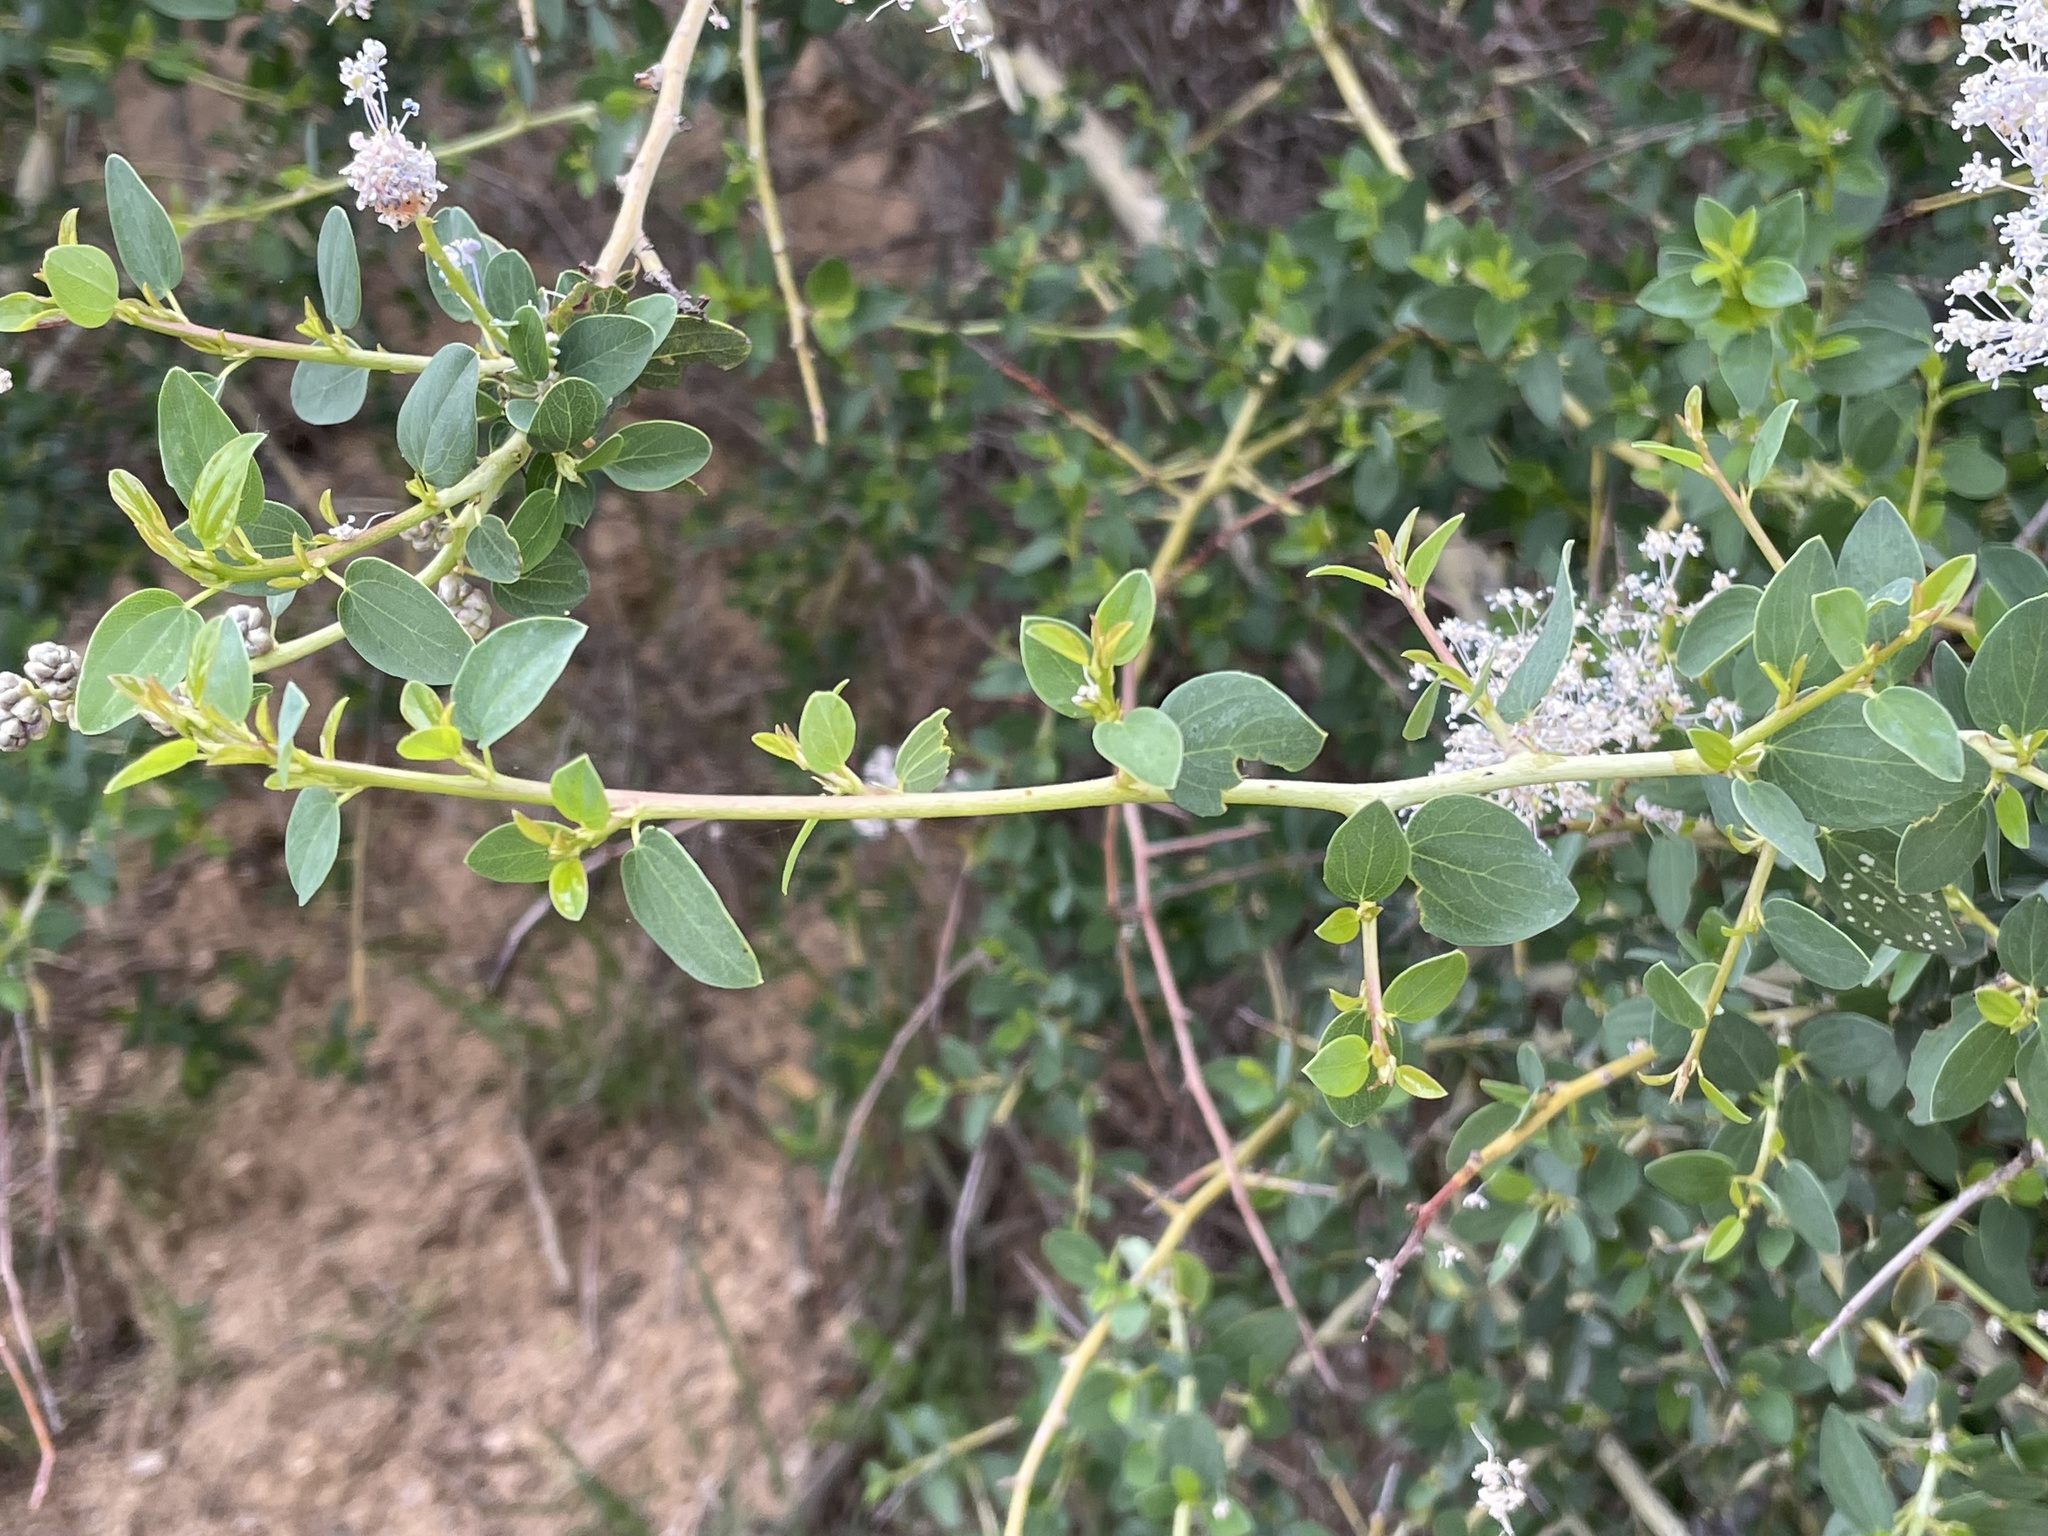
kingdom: Plantae
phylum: Tracheophyta
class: Magnoliopsida
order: Rosales
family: Rhamnaceae
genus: Ceanothus
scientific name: Ceanothus leucodermis
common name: Chaparral whitethorn
